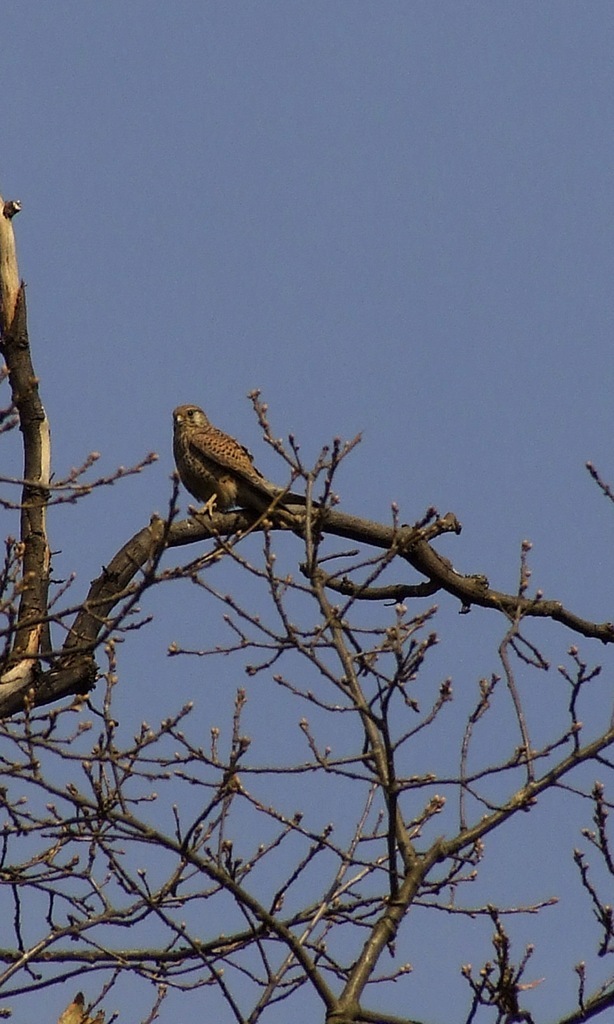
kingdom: Animalia
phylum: Chordata
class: Aves
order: Falconiformes
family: Falconidae
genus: Falco
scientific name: Falco tinnunculus
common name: Common kestrel
